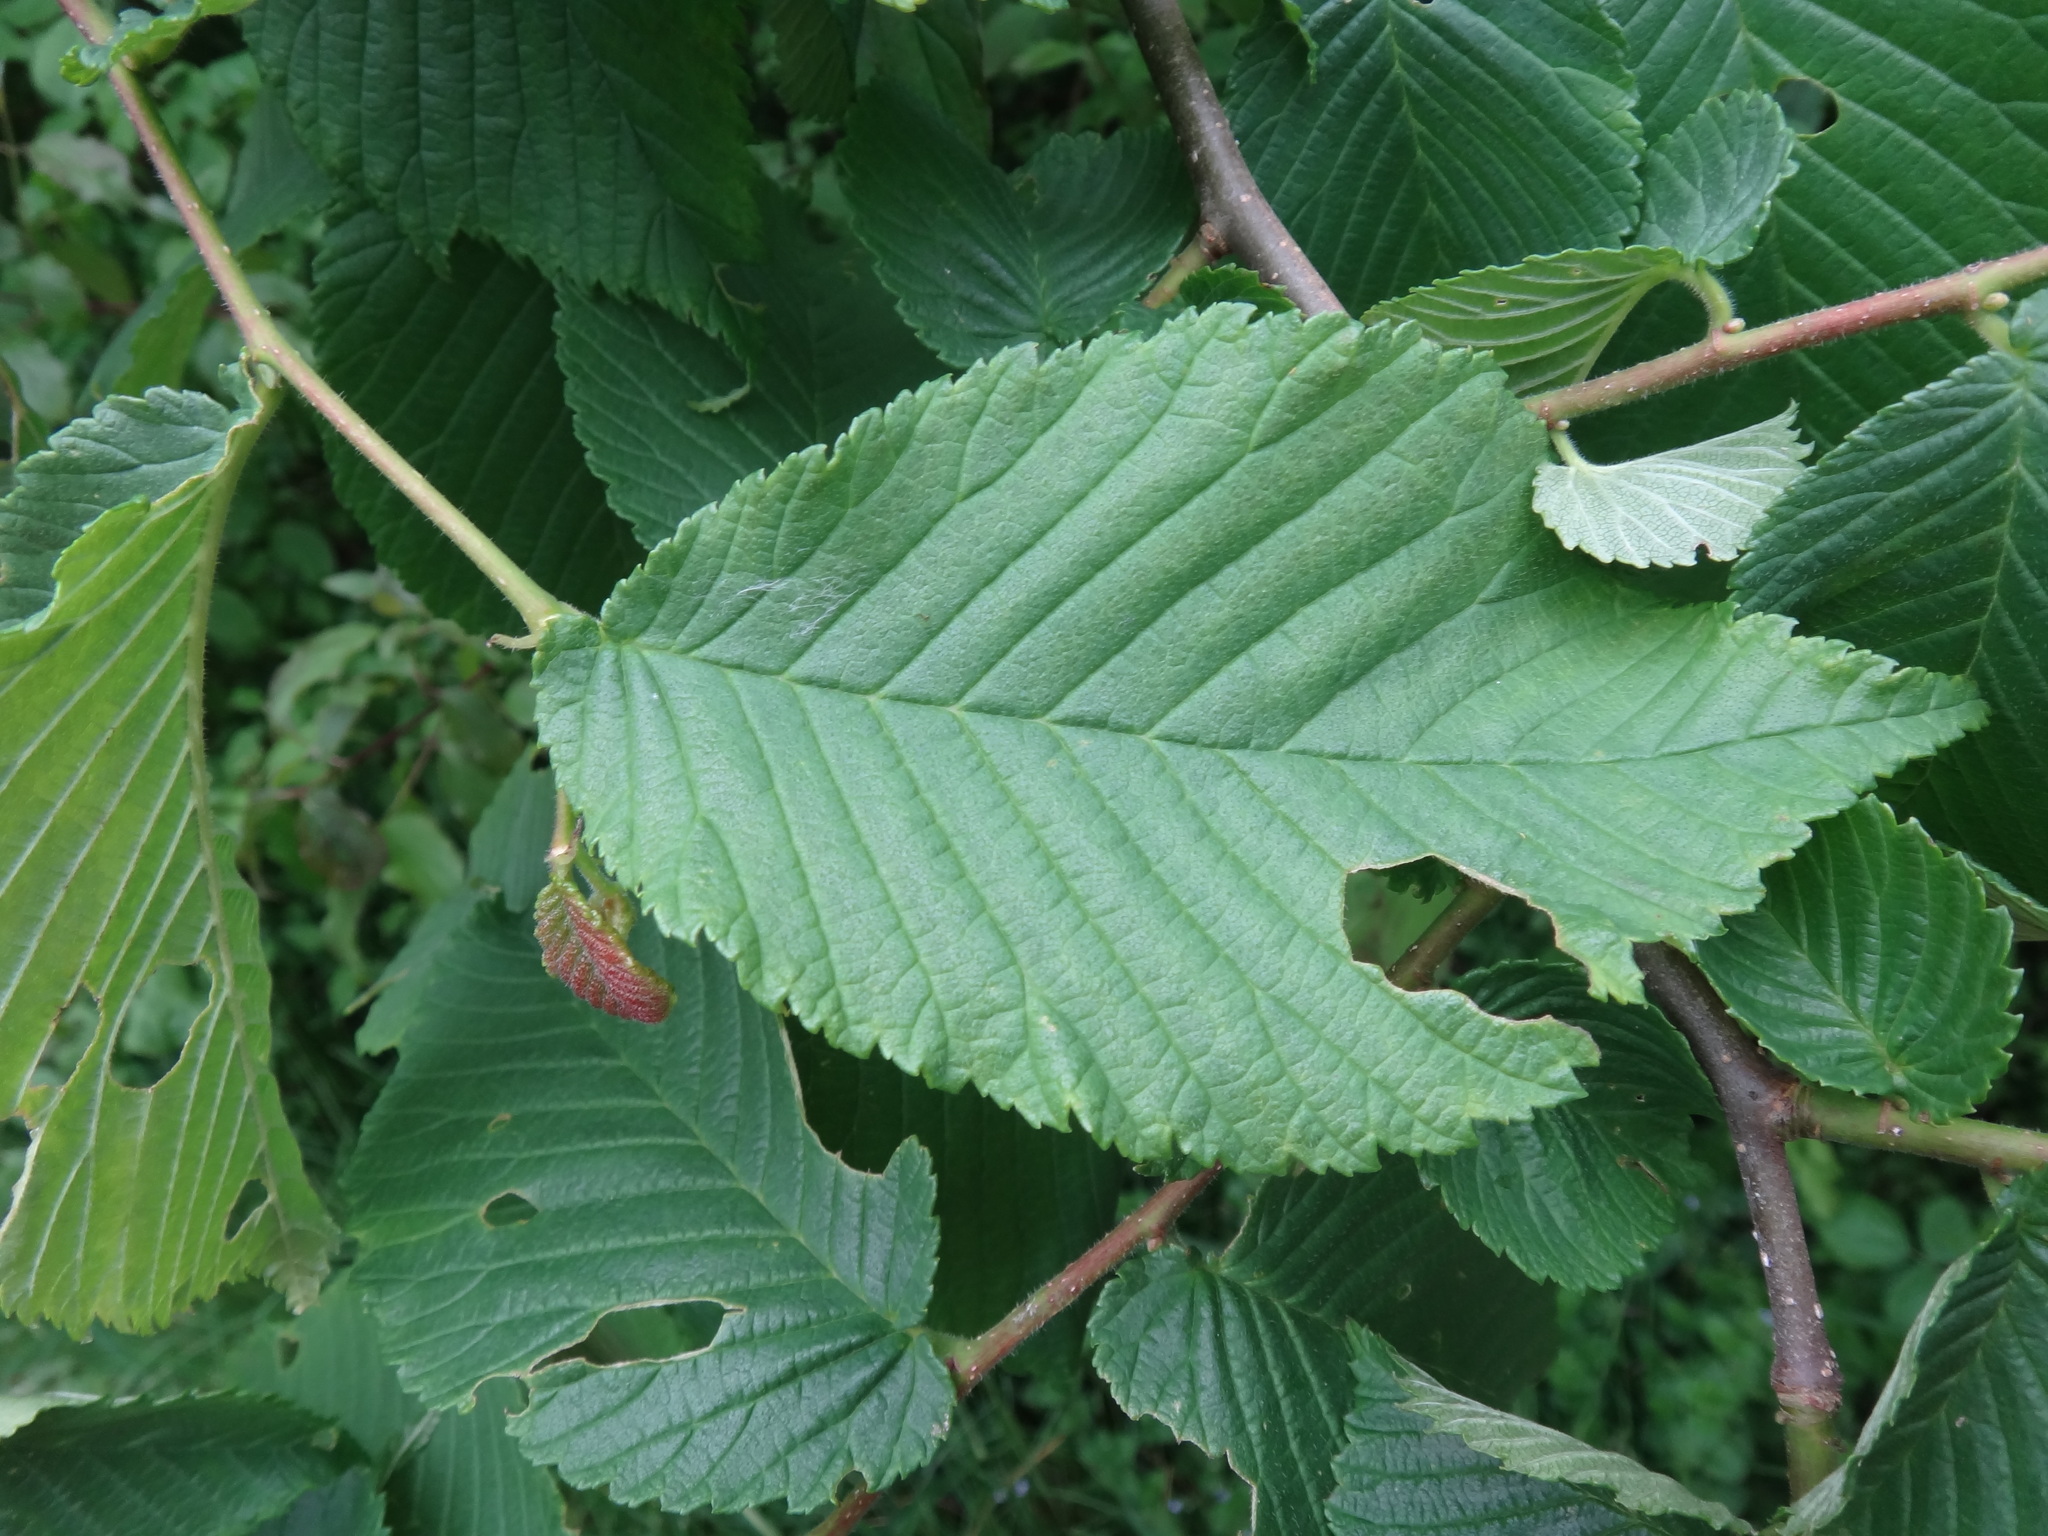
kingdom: Plantae
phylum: Tracheophyta
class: Magnoliopsida
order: Fagales
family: Betulaceae
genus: Carpinus
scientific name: Carpinus betulus
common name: Hornbeam
